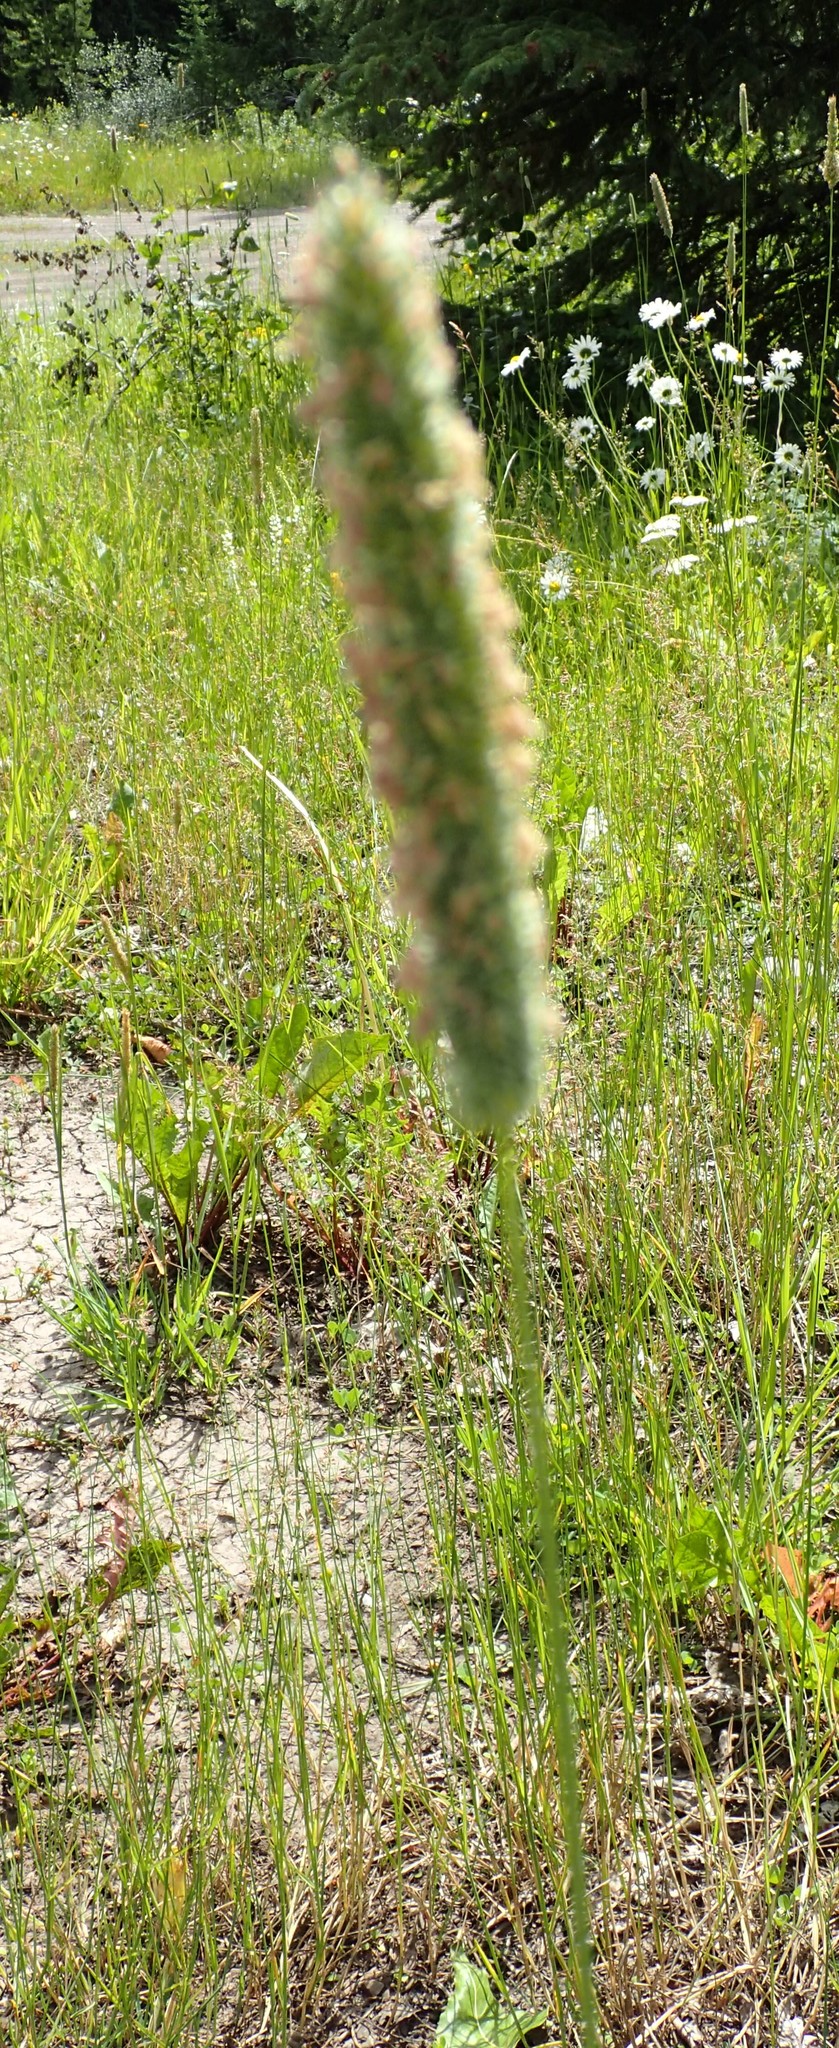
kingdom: Plantae
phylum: Tracheophyta
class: Liliopsida
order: Poales
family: Poaceae
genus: Phleum
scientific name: Phleum pratense
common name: Timothy grass
